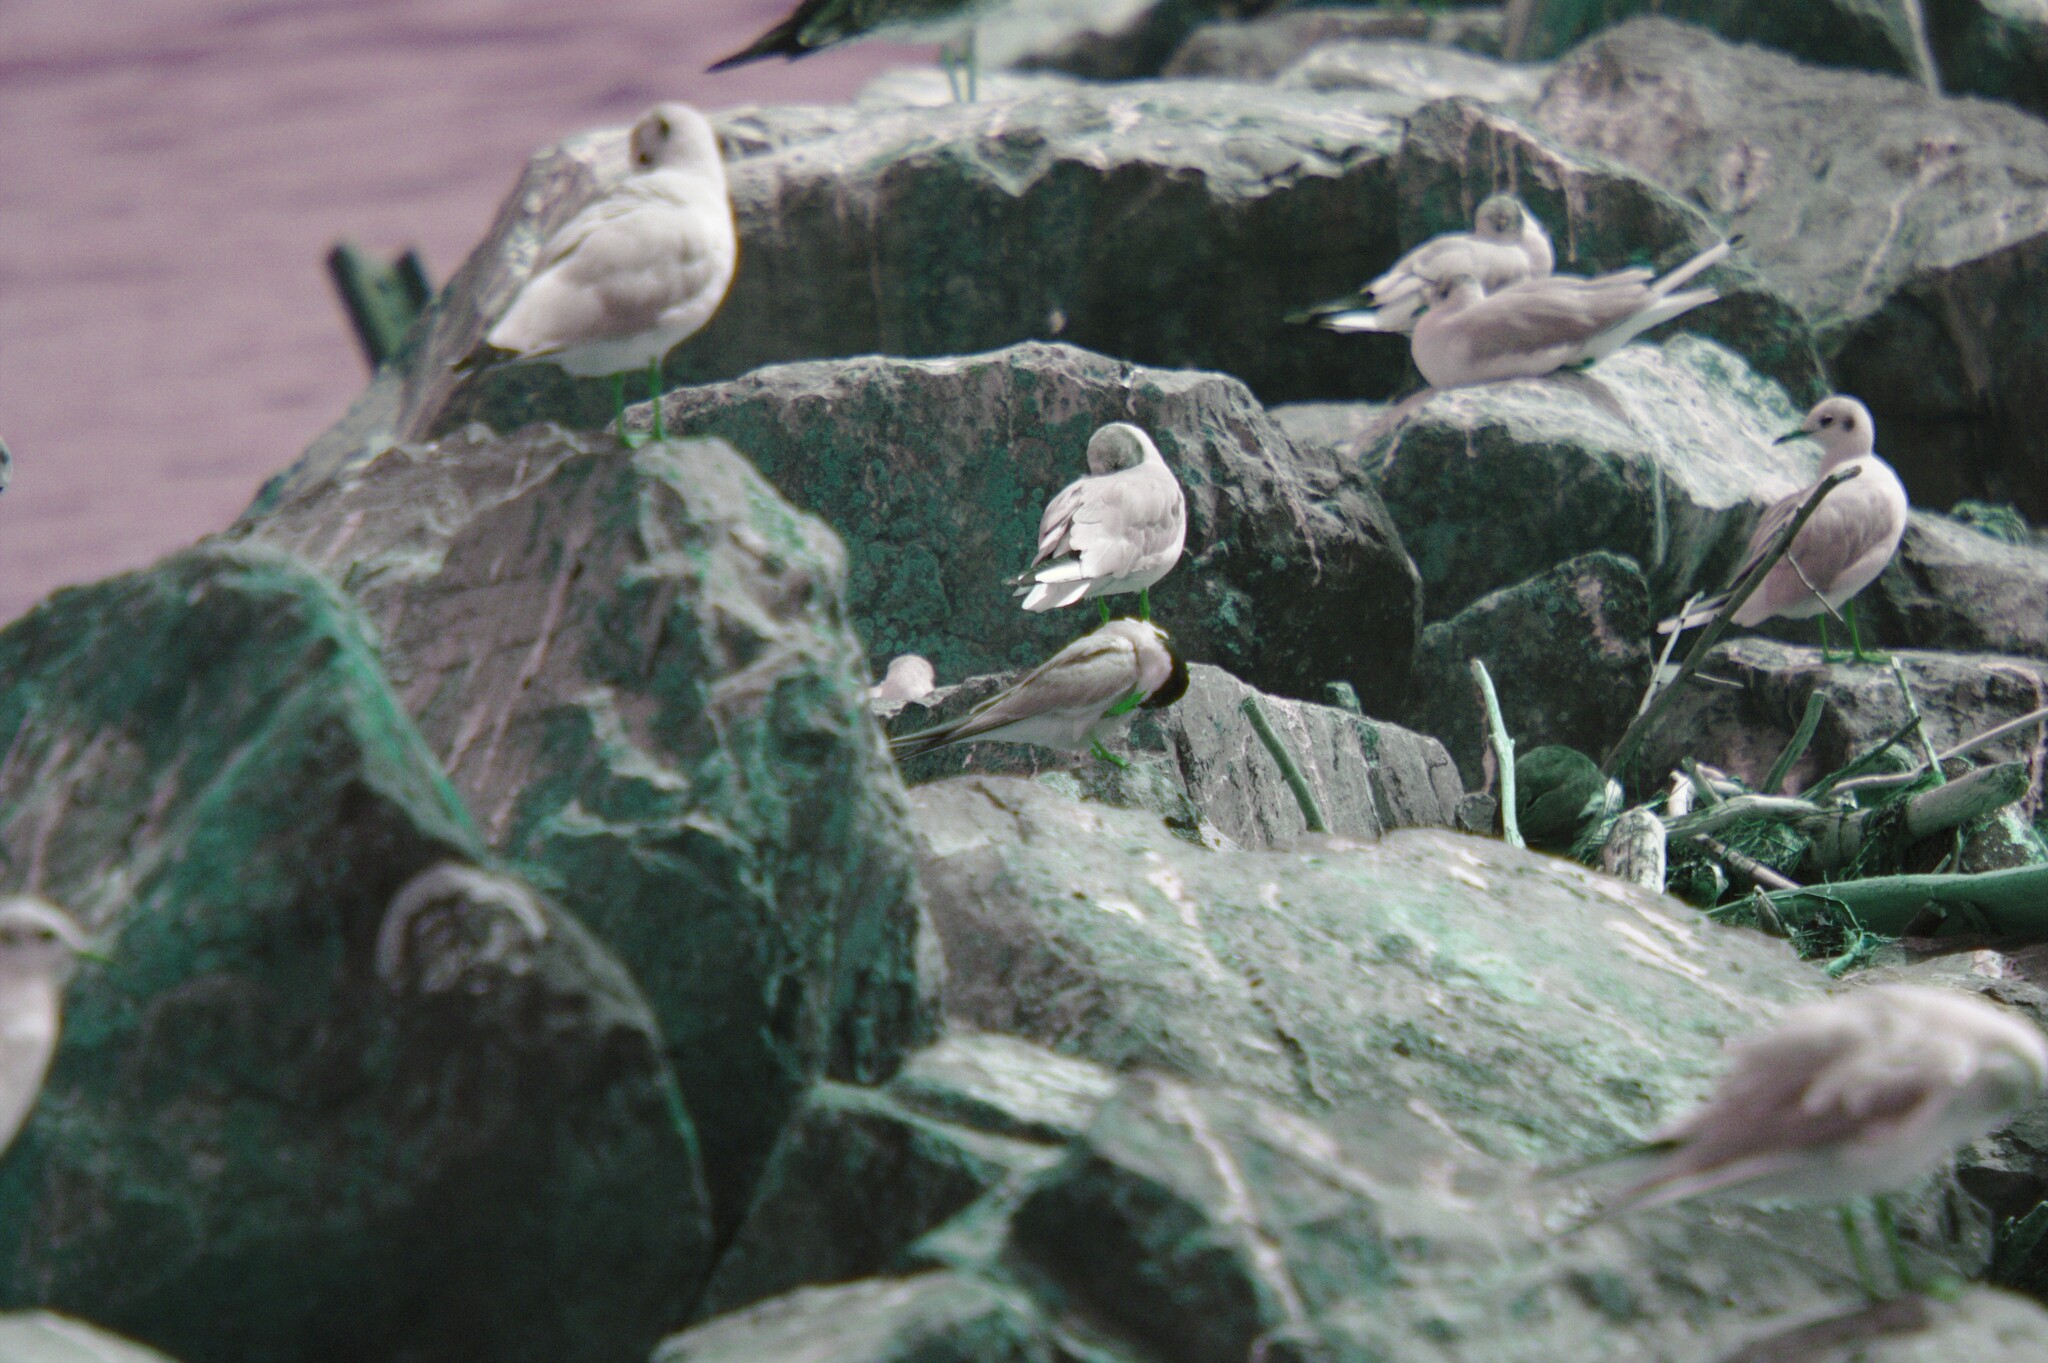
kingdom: Animalia
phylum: Chordata
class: Aves
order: Charadriiformes
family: Laridae
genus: Sterna
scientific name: Sterna hirundo
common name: Common tern
